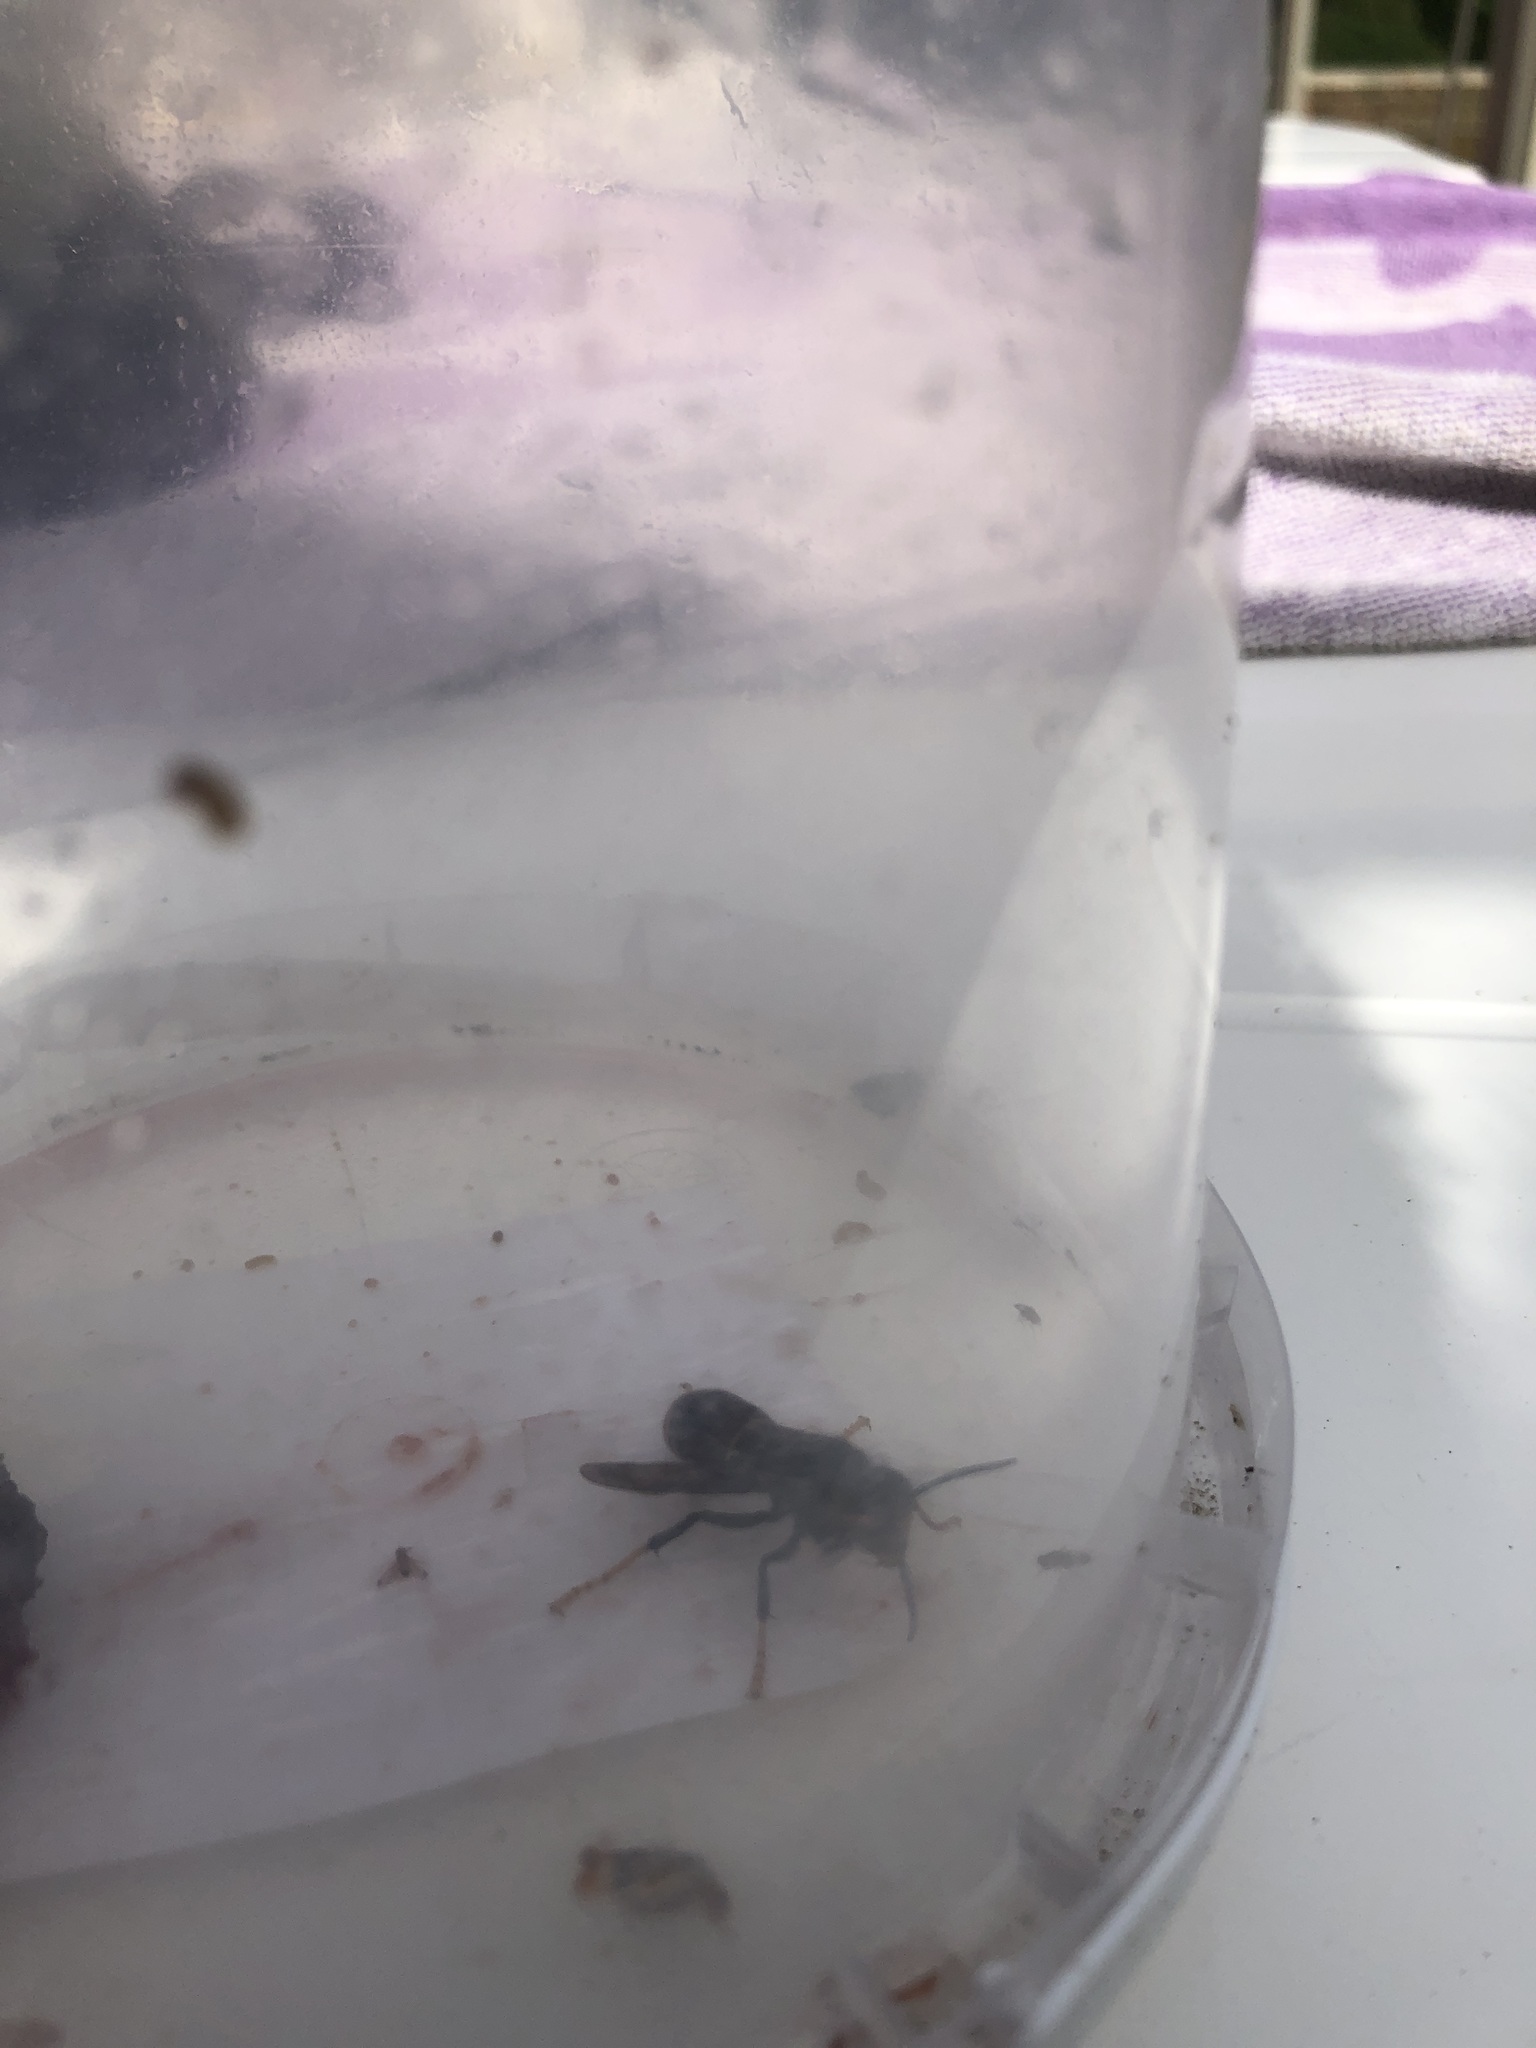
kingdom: Animalia
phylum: Arthropoda
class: Insecta
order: Hymenoptera
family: Vespidae
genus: Vespa
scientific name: Vespa velutina
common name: Asian hornet
